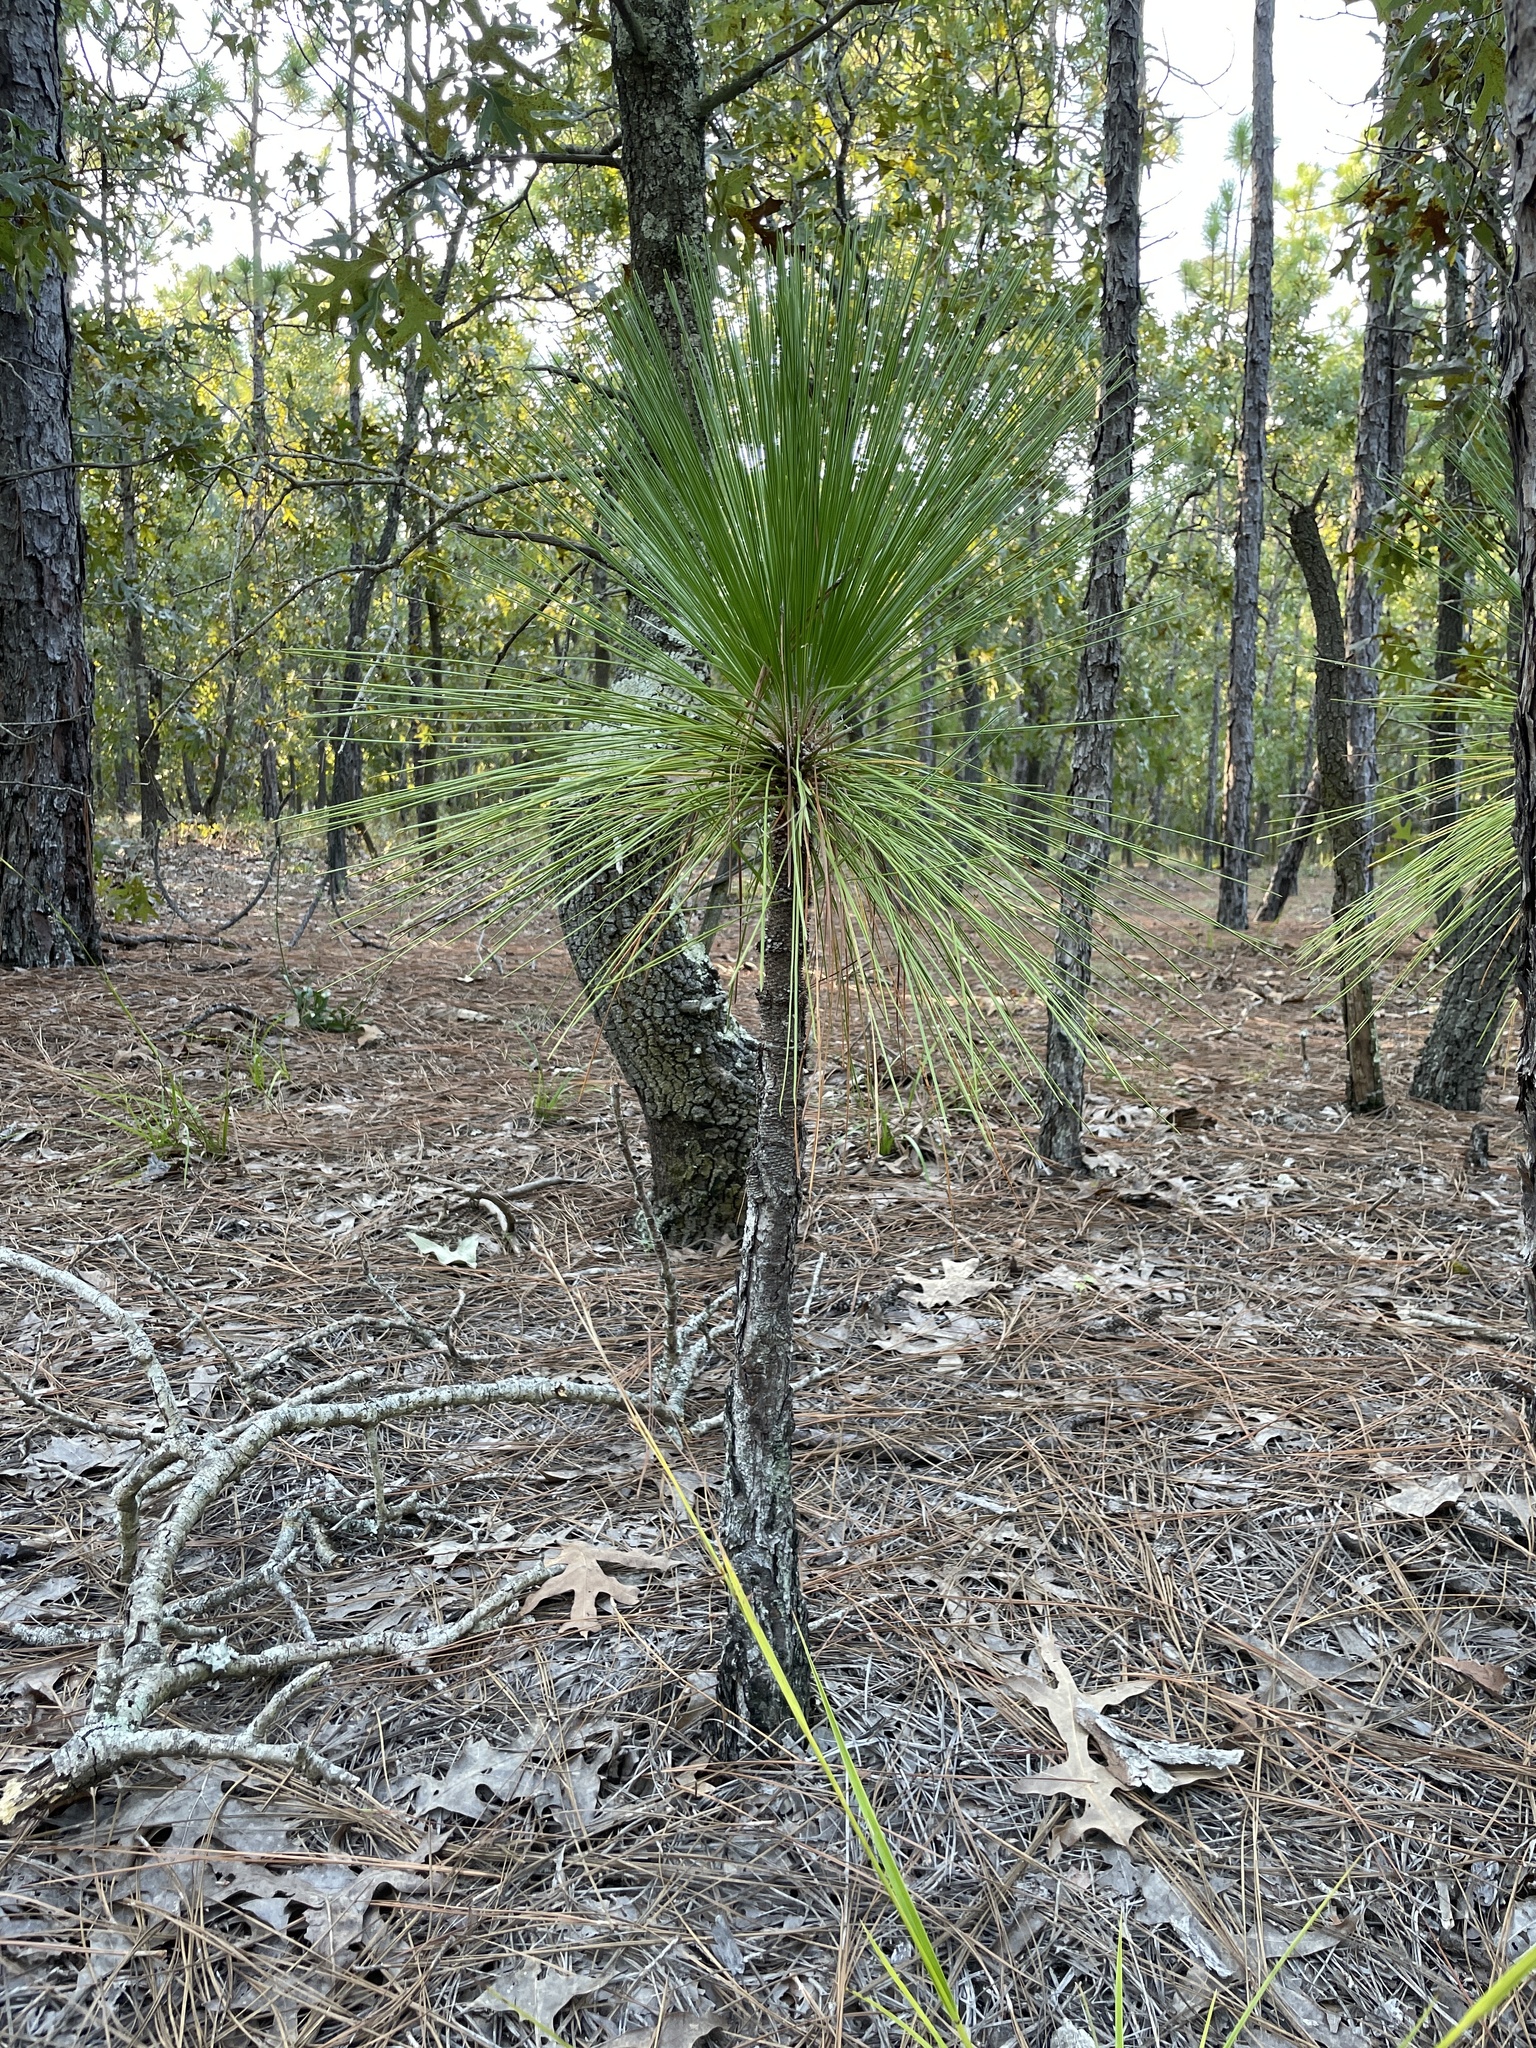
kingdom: Plantae
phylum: Tracheophyta
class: Pinopsida
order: Pinales
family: Pinaceae
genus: Pinus
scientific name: Pinus palustris
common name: Longleaf pine
